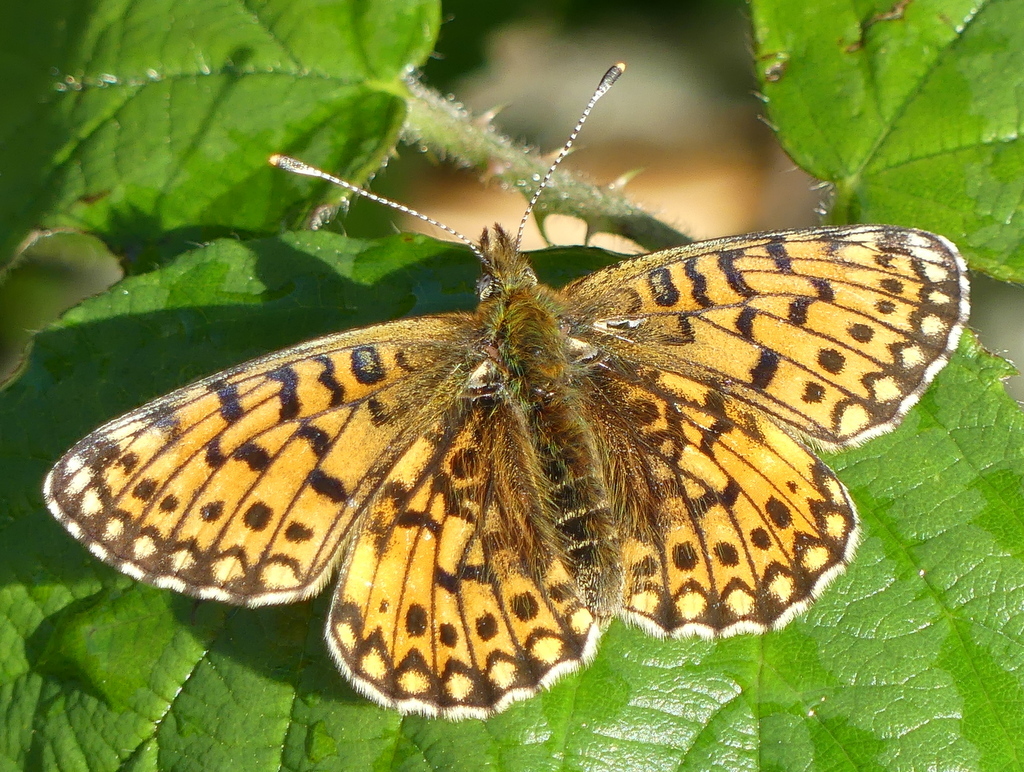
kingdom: Animalia
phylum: Arthropoda
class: Insecta
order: Lepidoptera
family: Nymphalidae
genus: Boloria
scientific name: Boloria selene
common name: Small pearl-bordered fritillary
